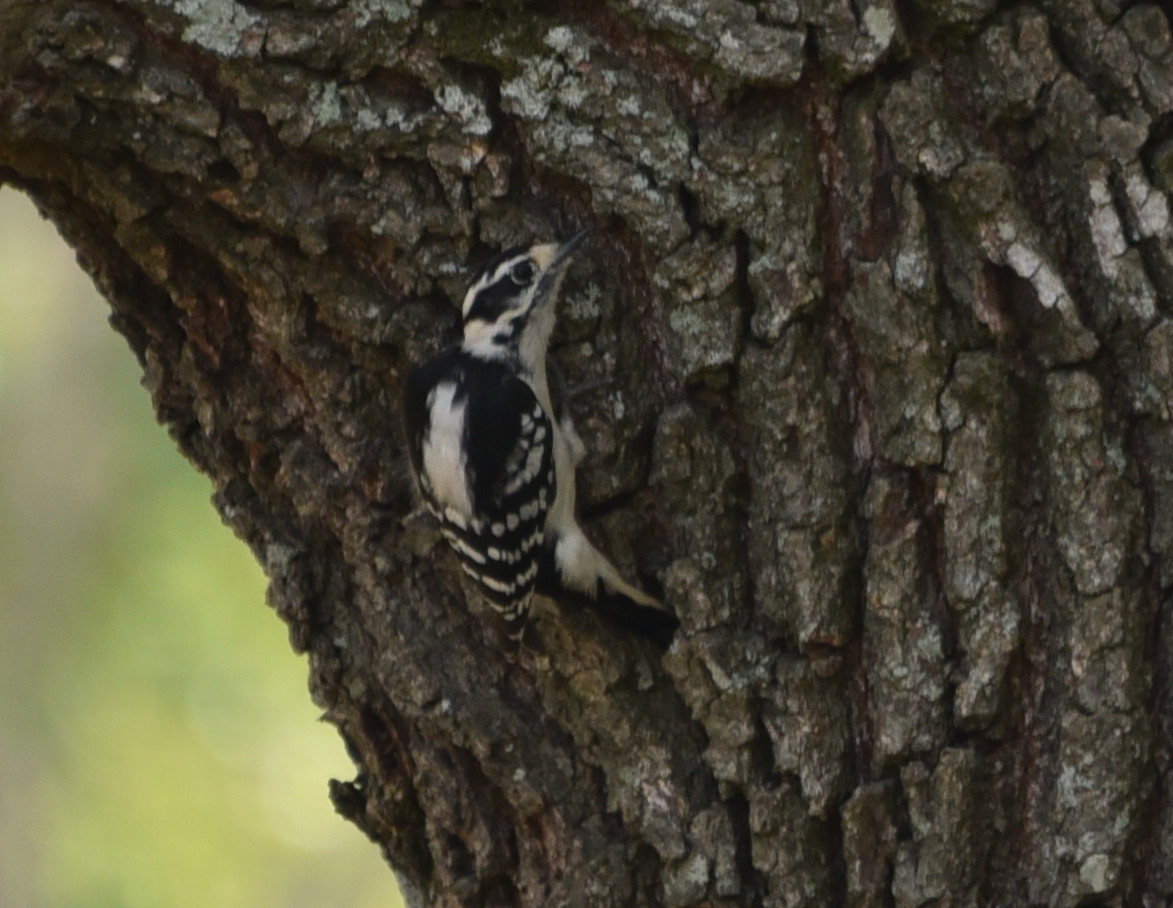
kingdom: Animalia
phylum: Chordata
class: Aves
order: Piciformes
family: Picidae
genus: Dryobates
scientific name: Dryobates pubescens
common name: Downy woodpecker
